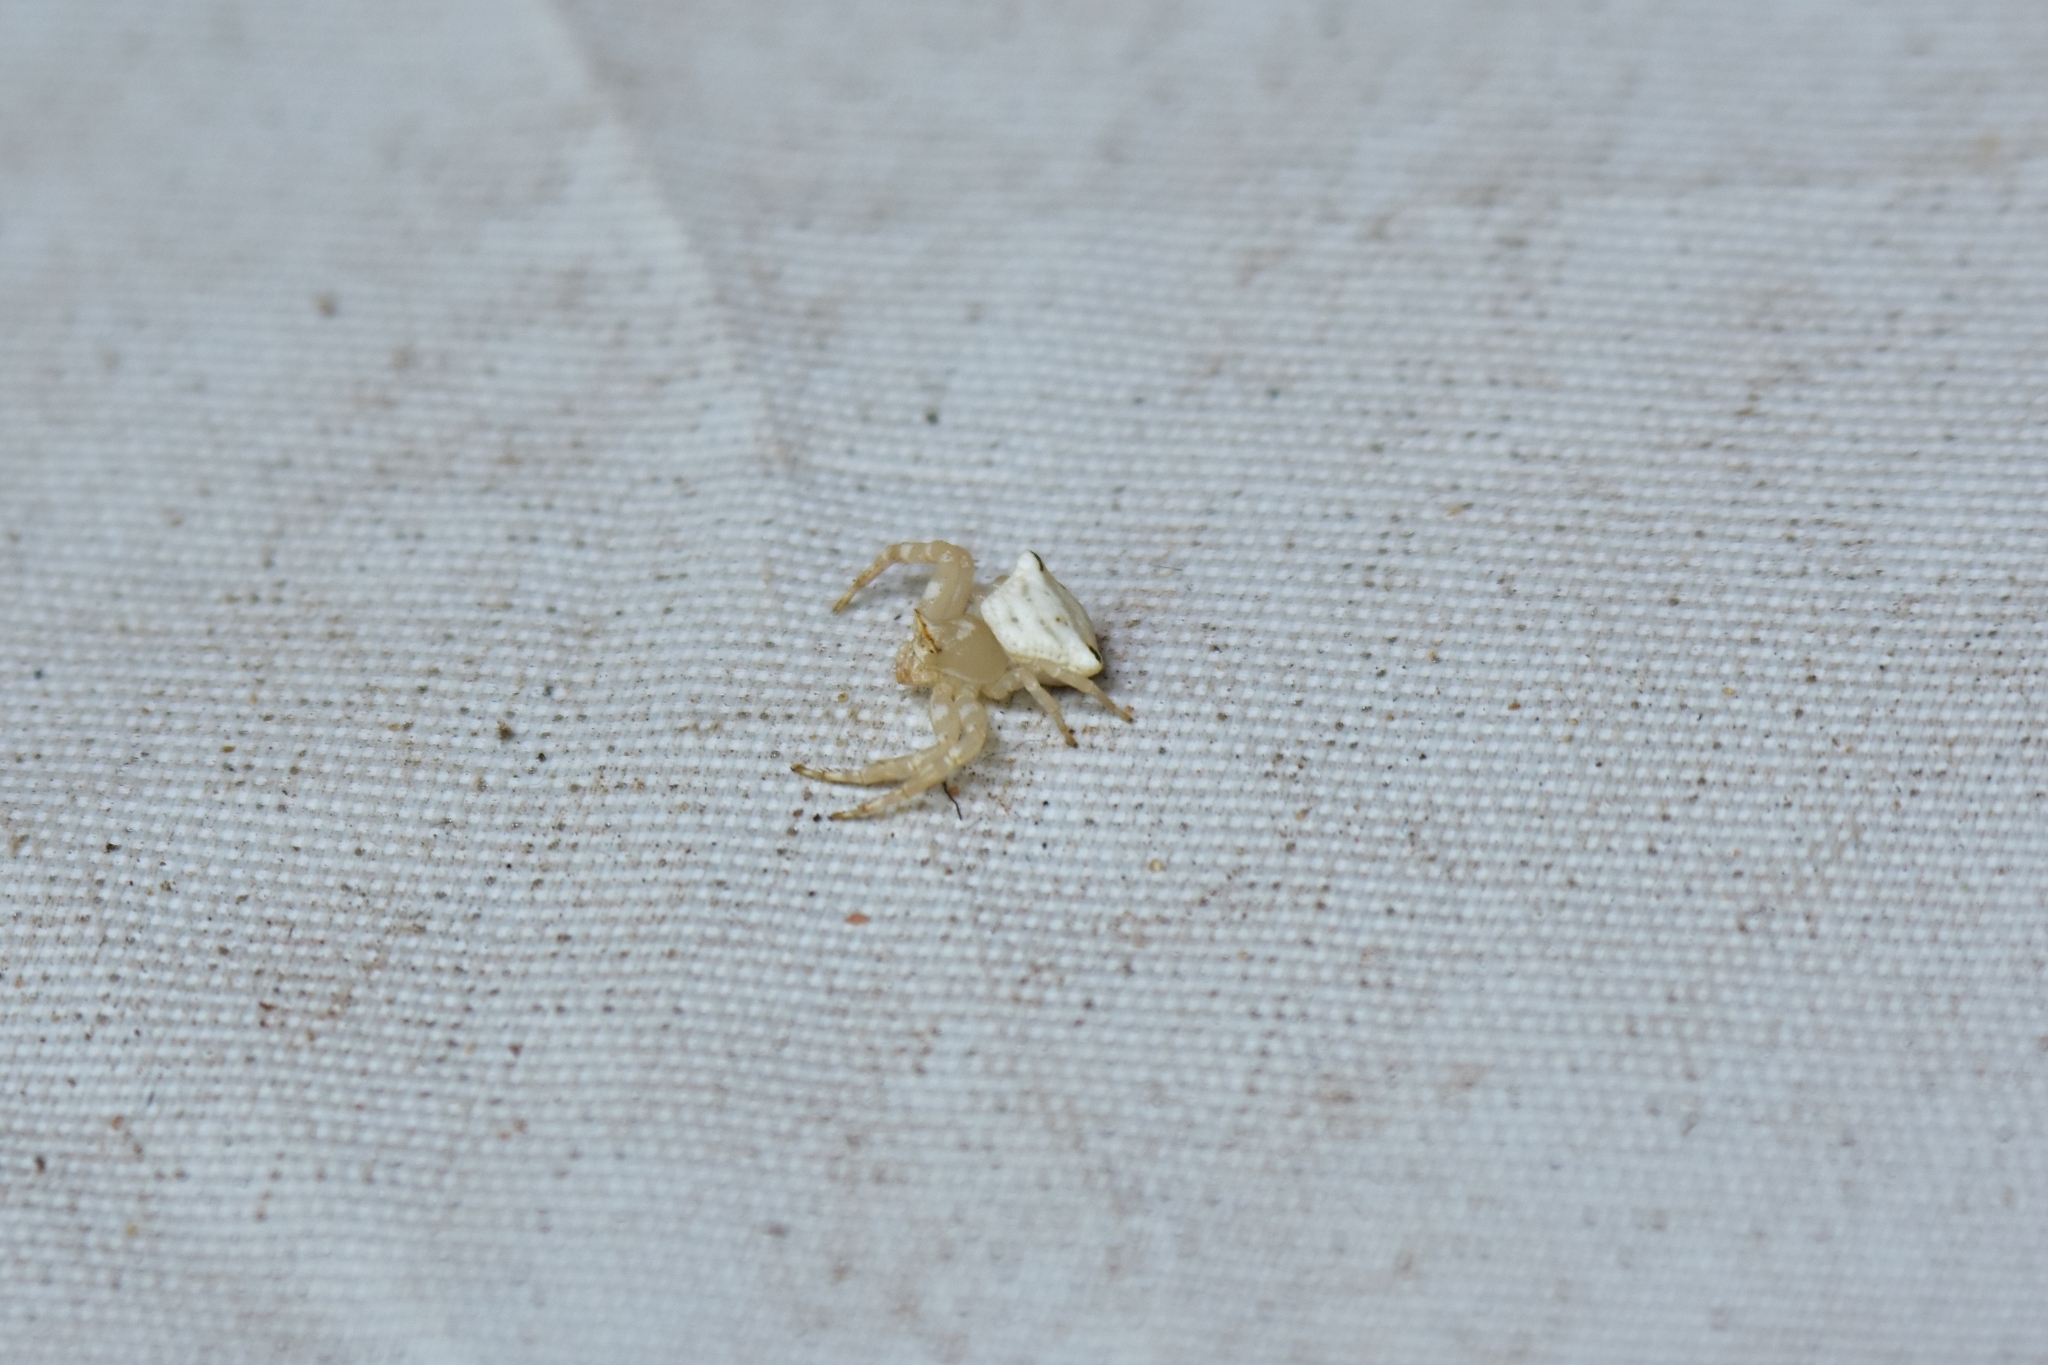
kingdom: Animalia
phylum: Arthropoda
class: Arachnida
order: Araneae
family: Thomisidae
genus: Thomisus
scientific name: Thomisus labefactus
